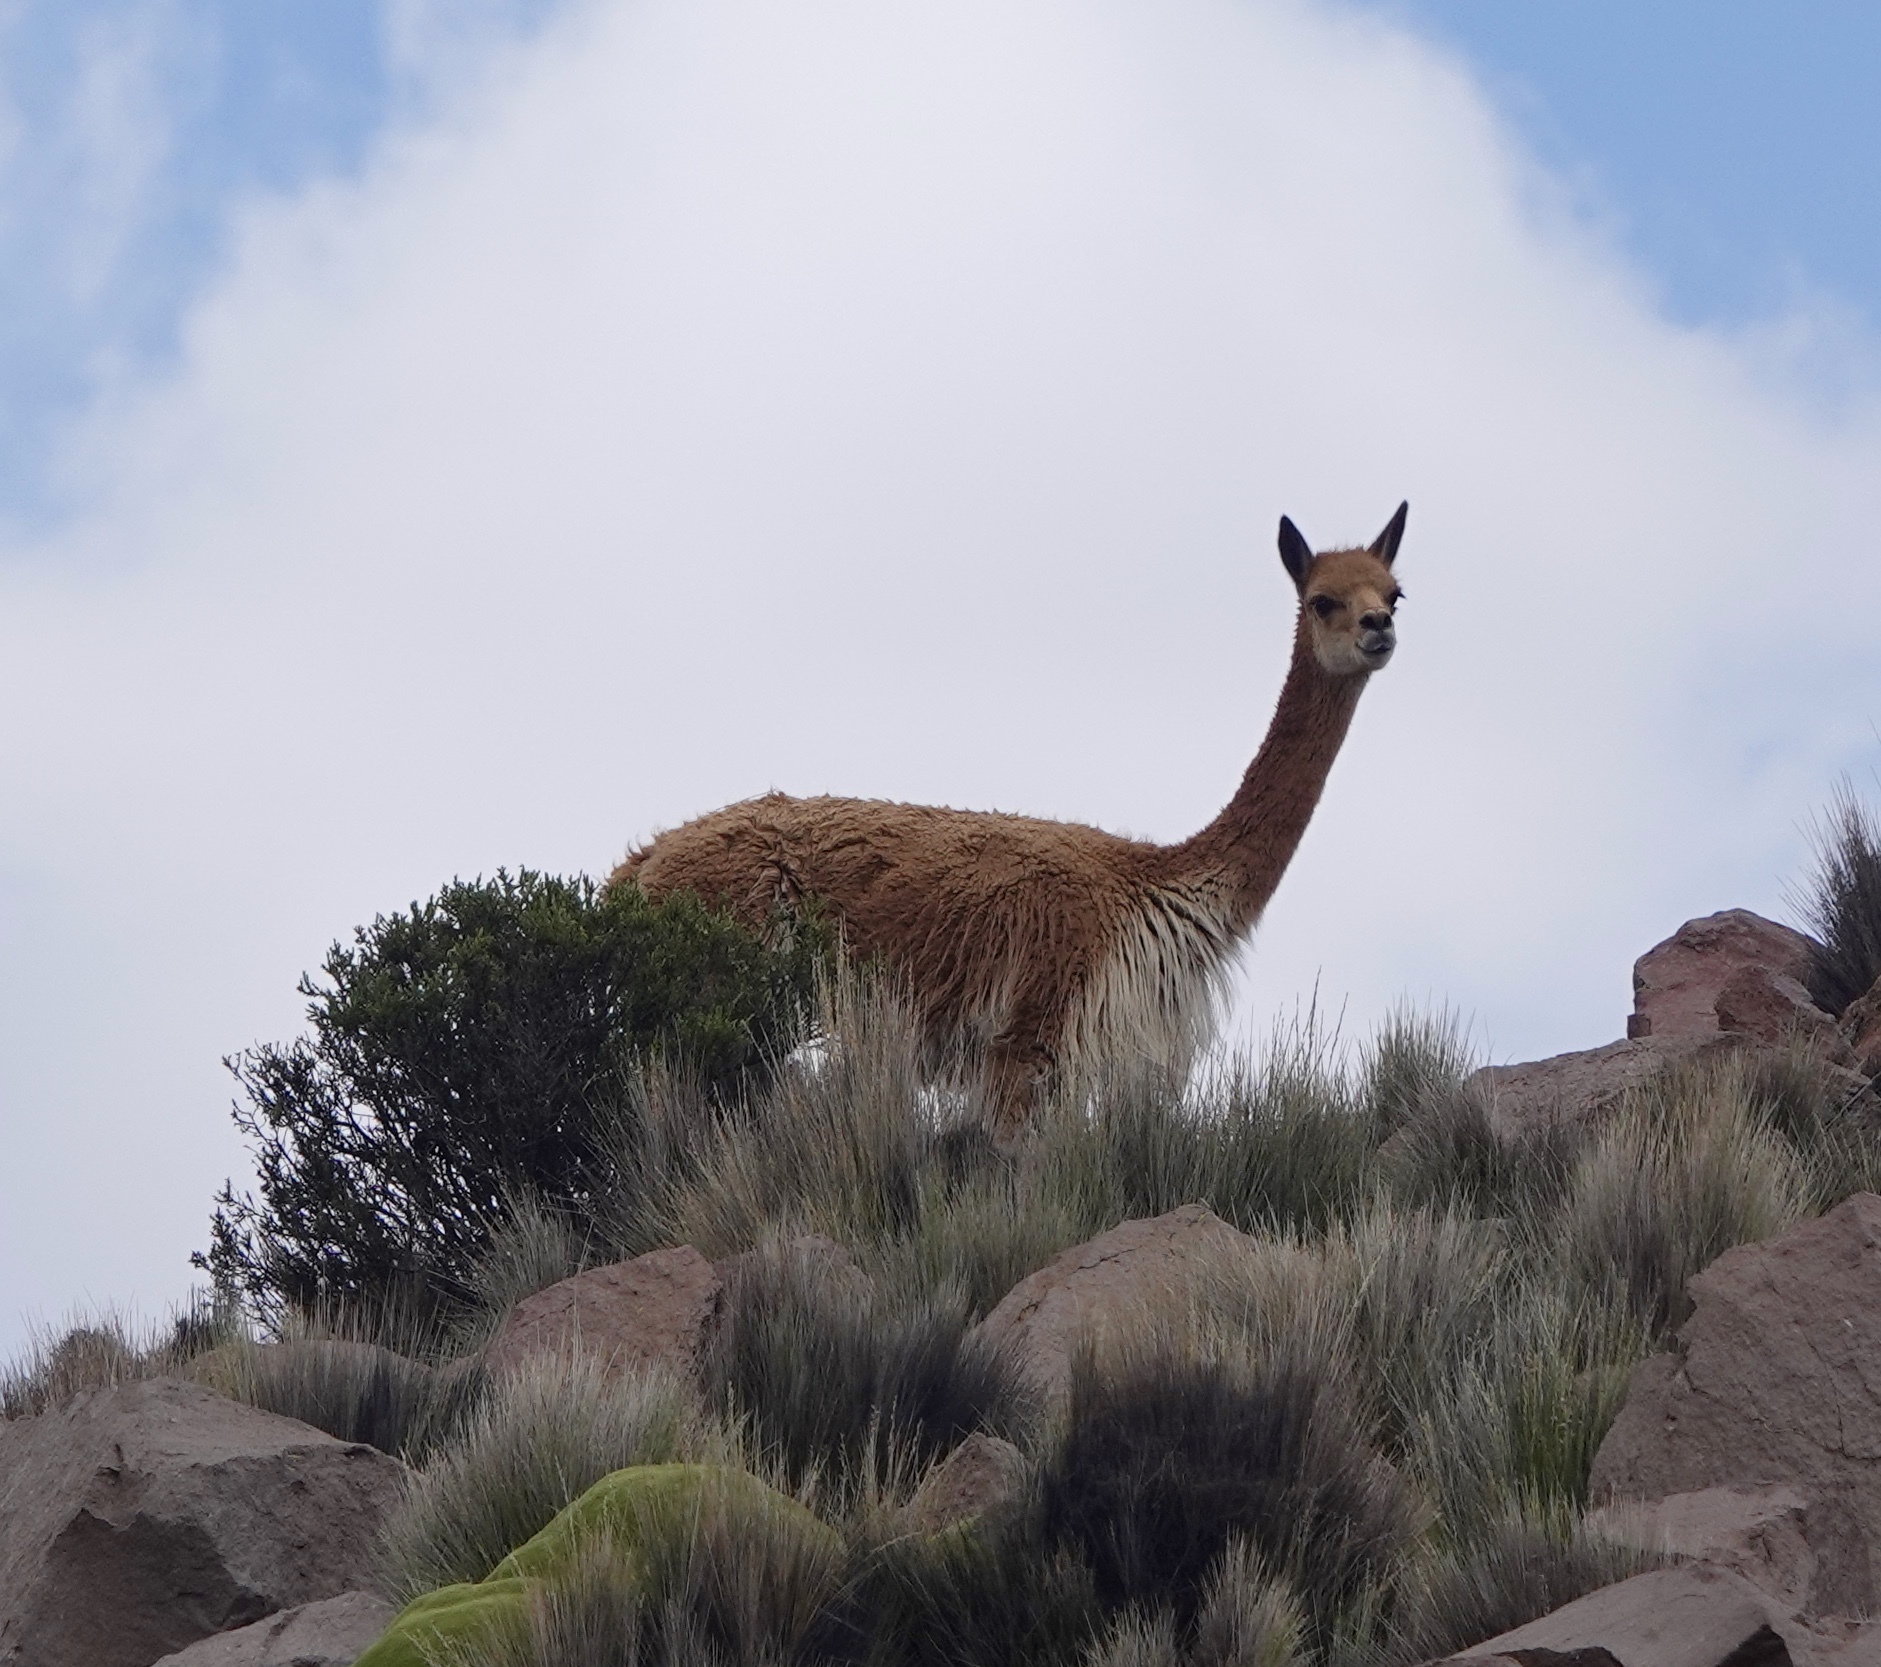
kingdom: Animalia
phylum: Chordata
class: Mammalia
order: Artiodactyla
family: Camelidae
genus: Vicugna
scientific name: Vicugna vicugna
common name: Vicugna
